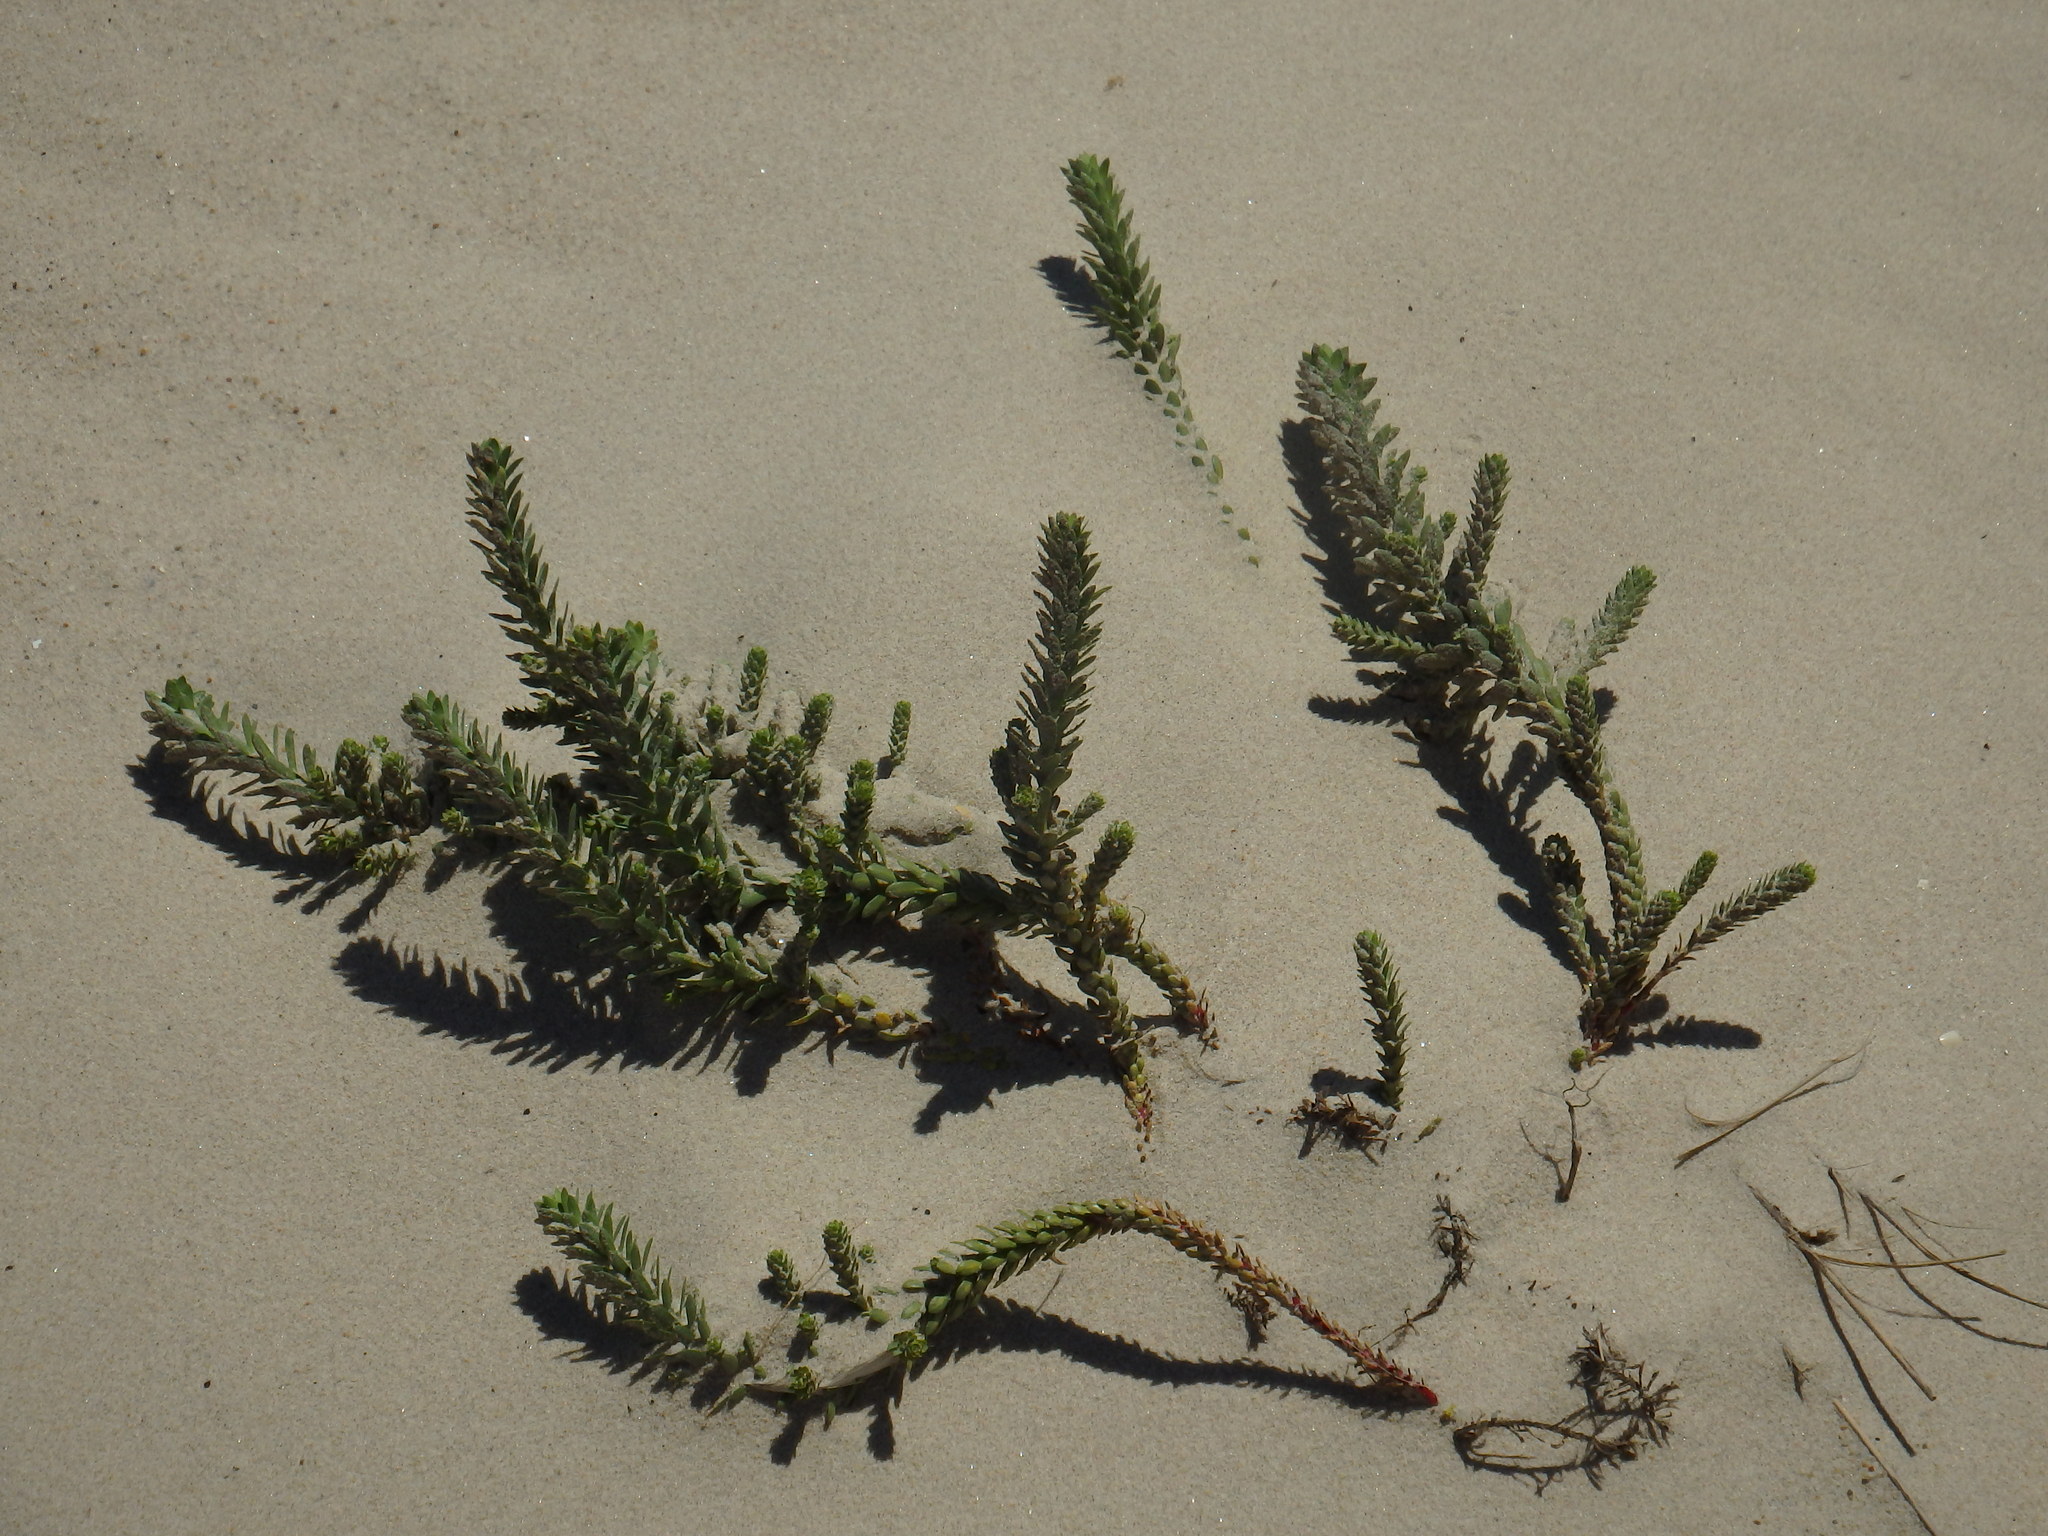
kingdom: Plantae
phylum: Tracheophyta
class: Magnoliopsida
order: Malpighiales
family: Euphorbiaceae
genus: Euphorbia
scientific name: Euphorbia paralias
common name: Sea spurge
